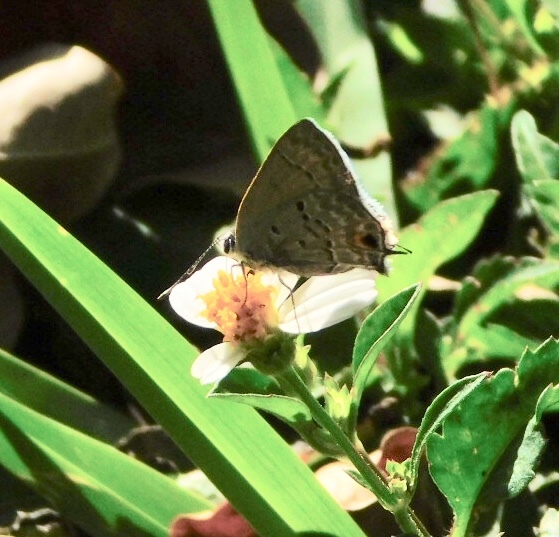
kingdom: Animalia
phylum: Arthropoda
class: Insecta
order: Lepidoptera
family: Lycaenidae
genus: Callicista
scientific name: Callicista columella
